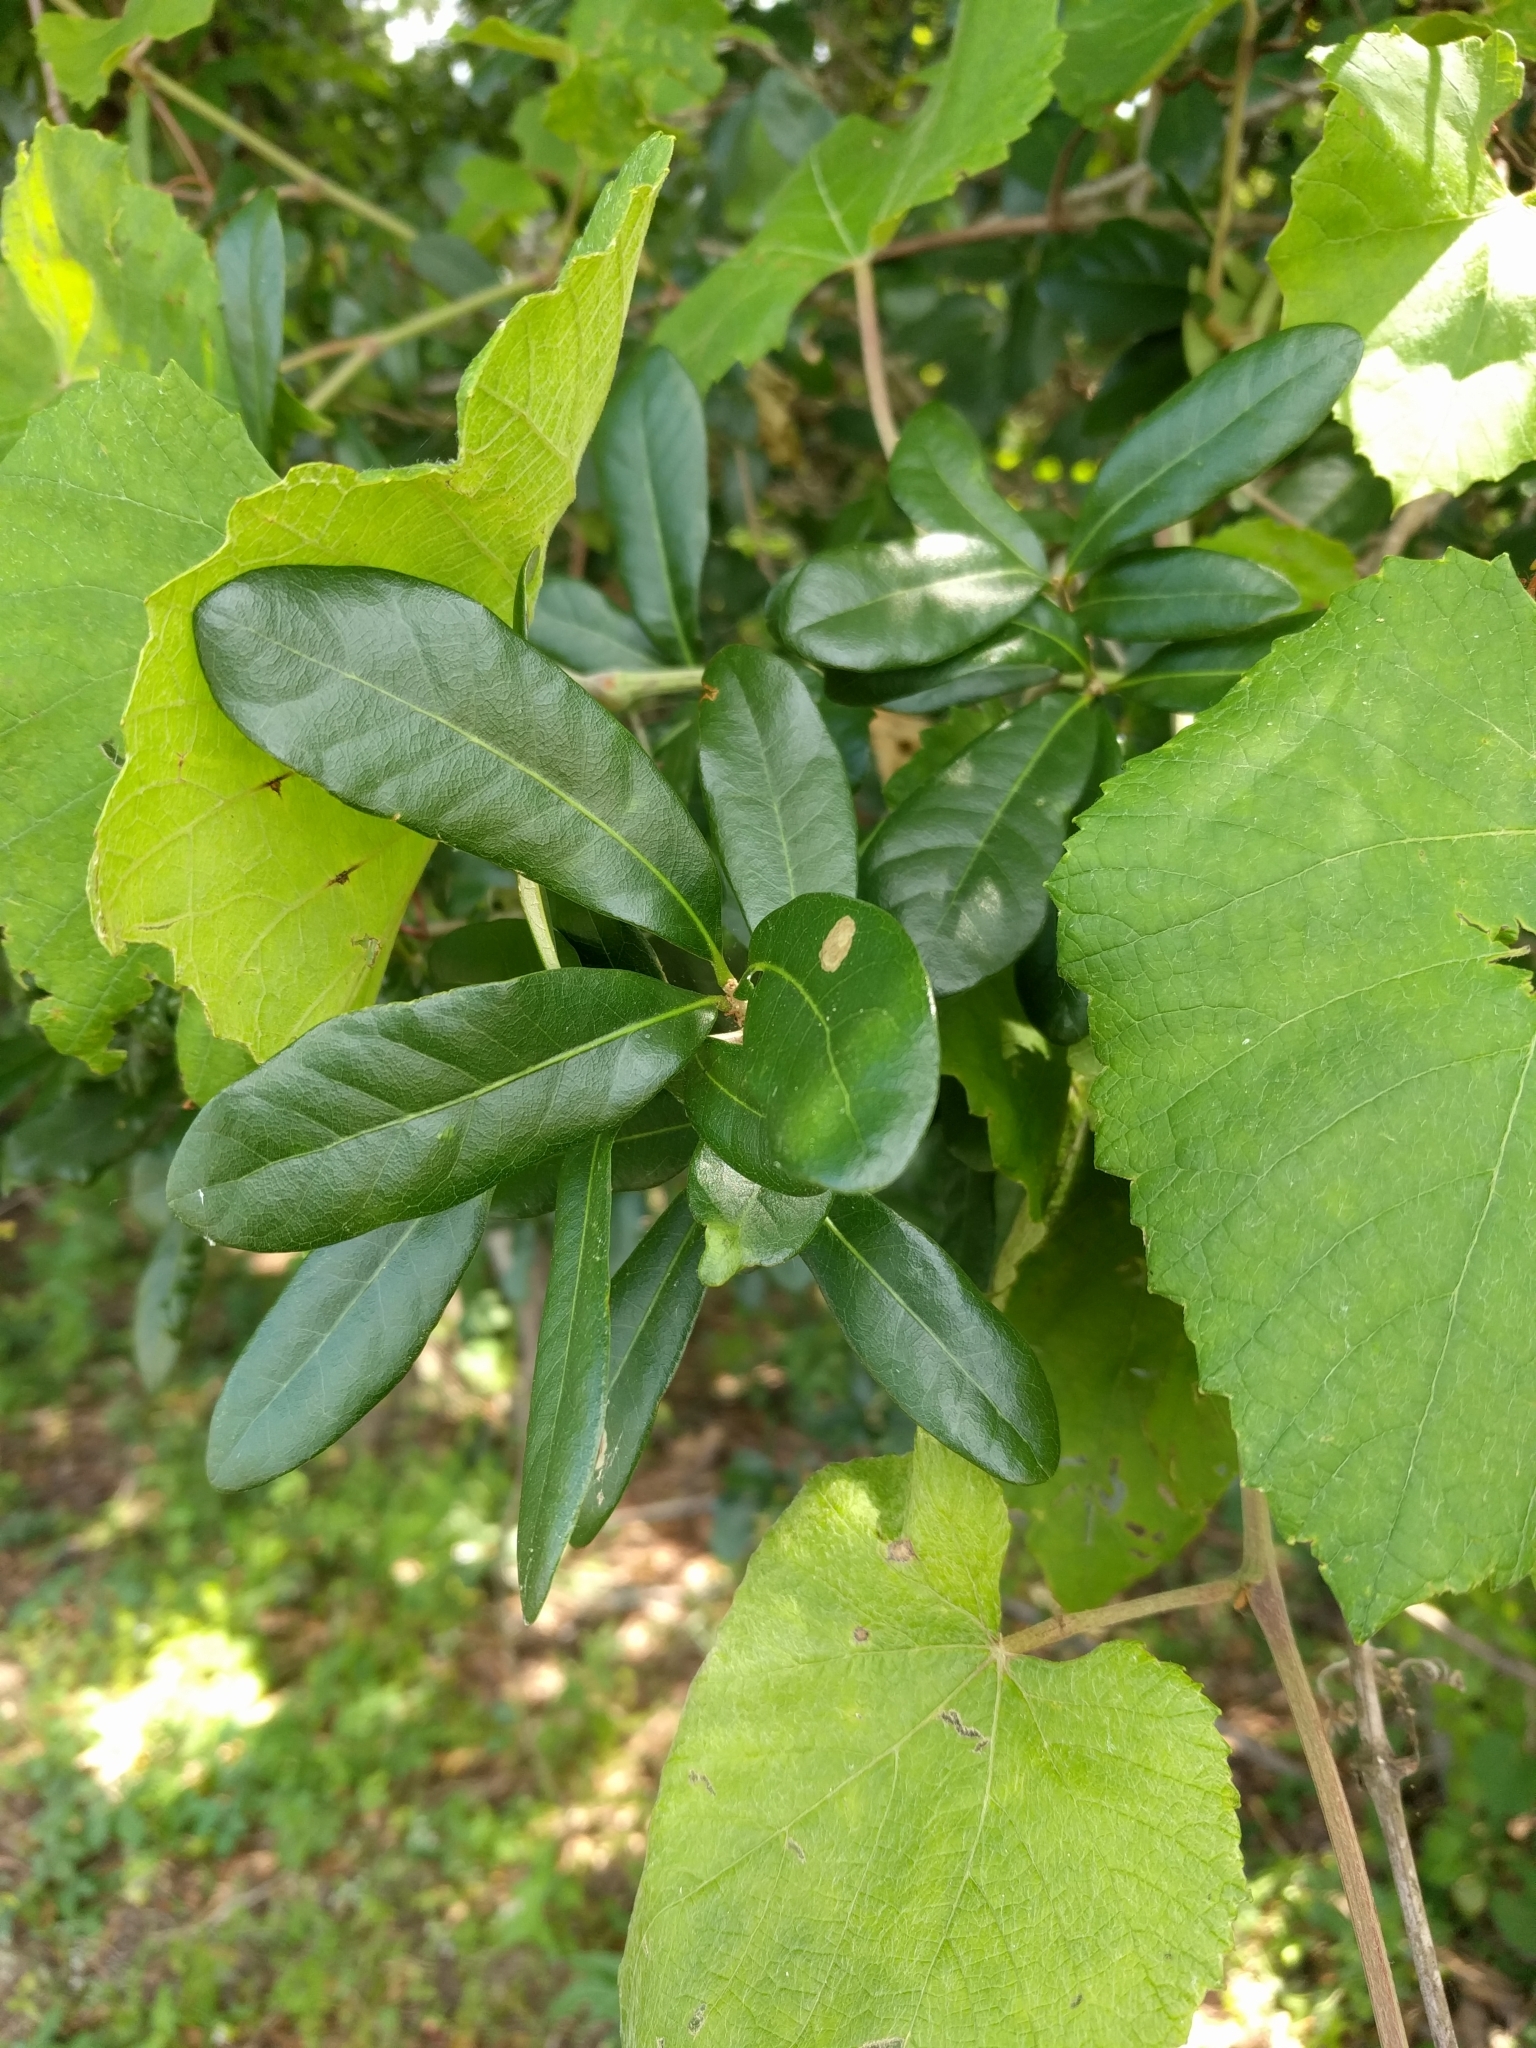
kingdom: Plantae
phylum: Tracheophyta
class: Magnoliopsida
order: Fagales
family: Fagaceae
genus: Quercus
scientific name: Quercus virginiana
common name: Southern live oak
